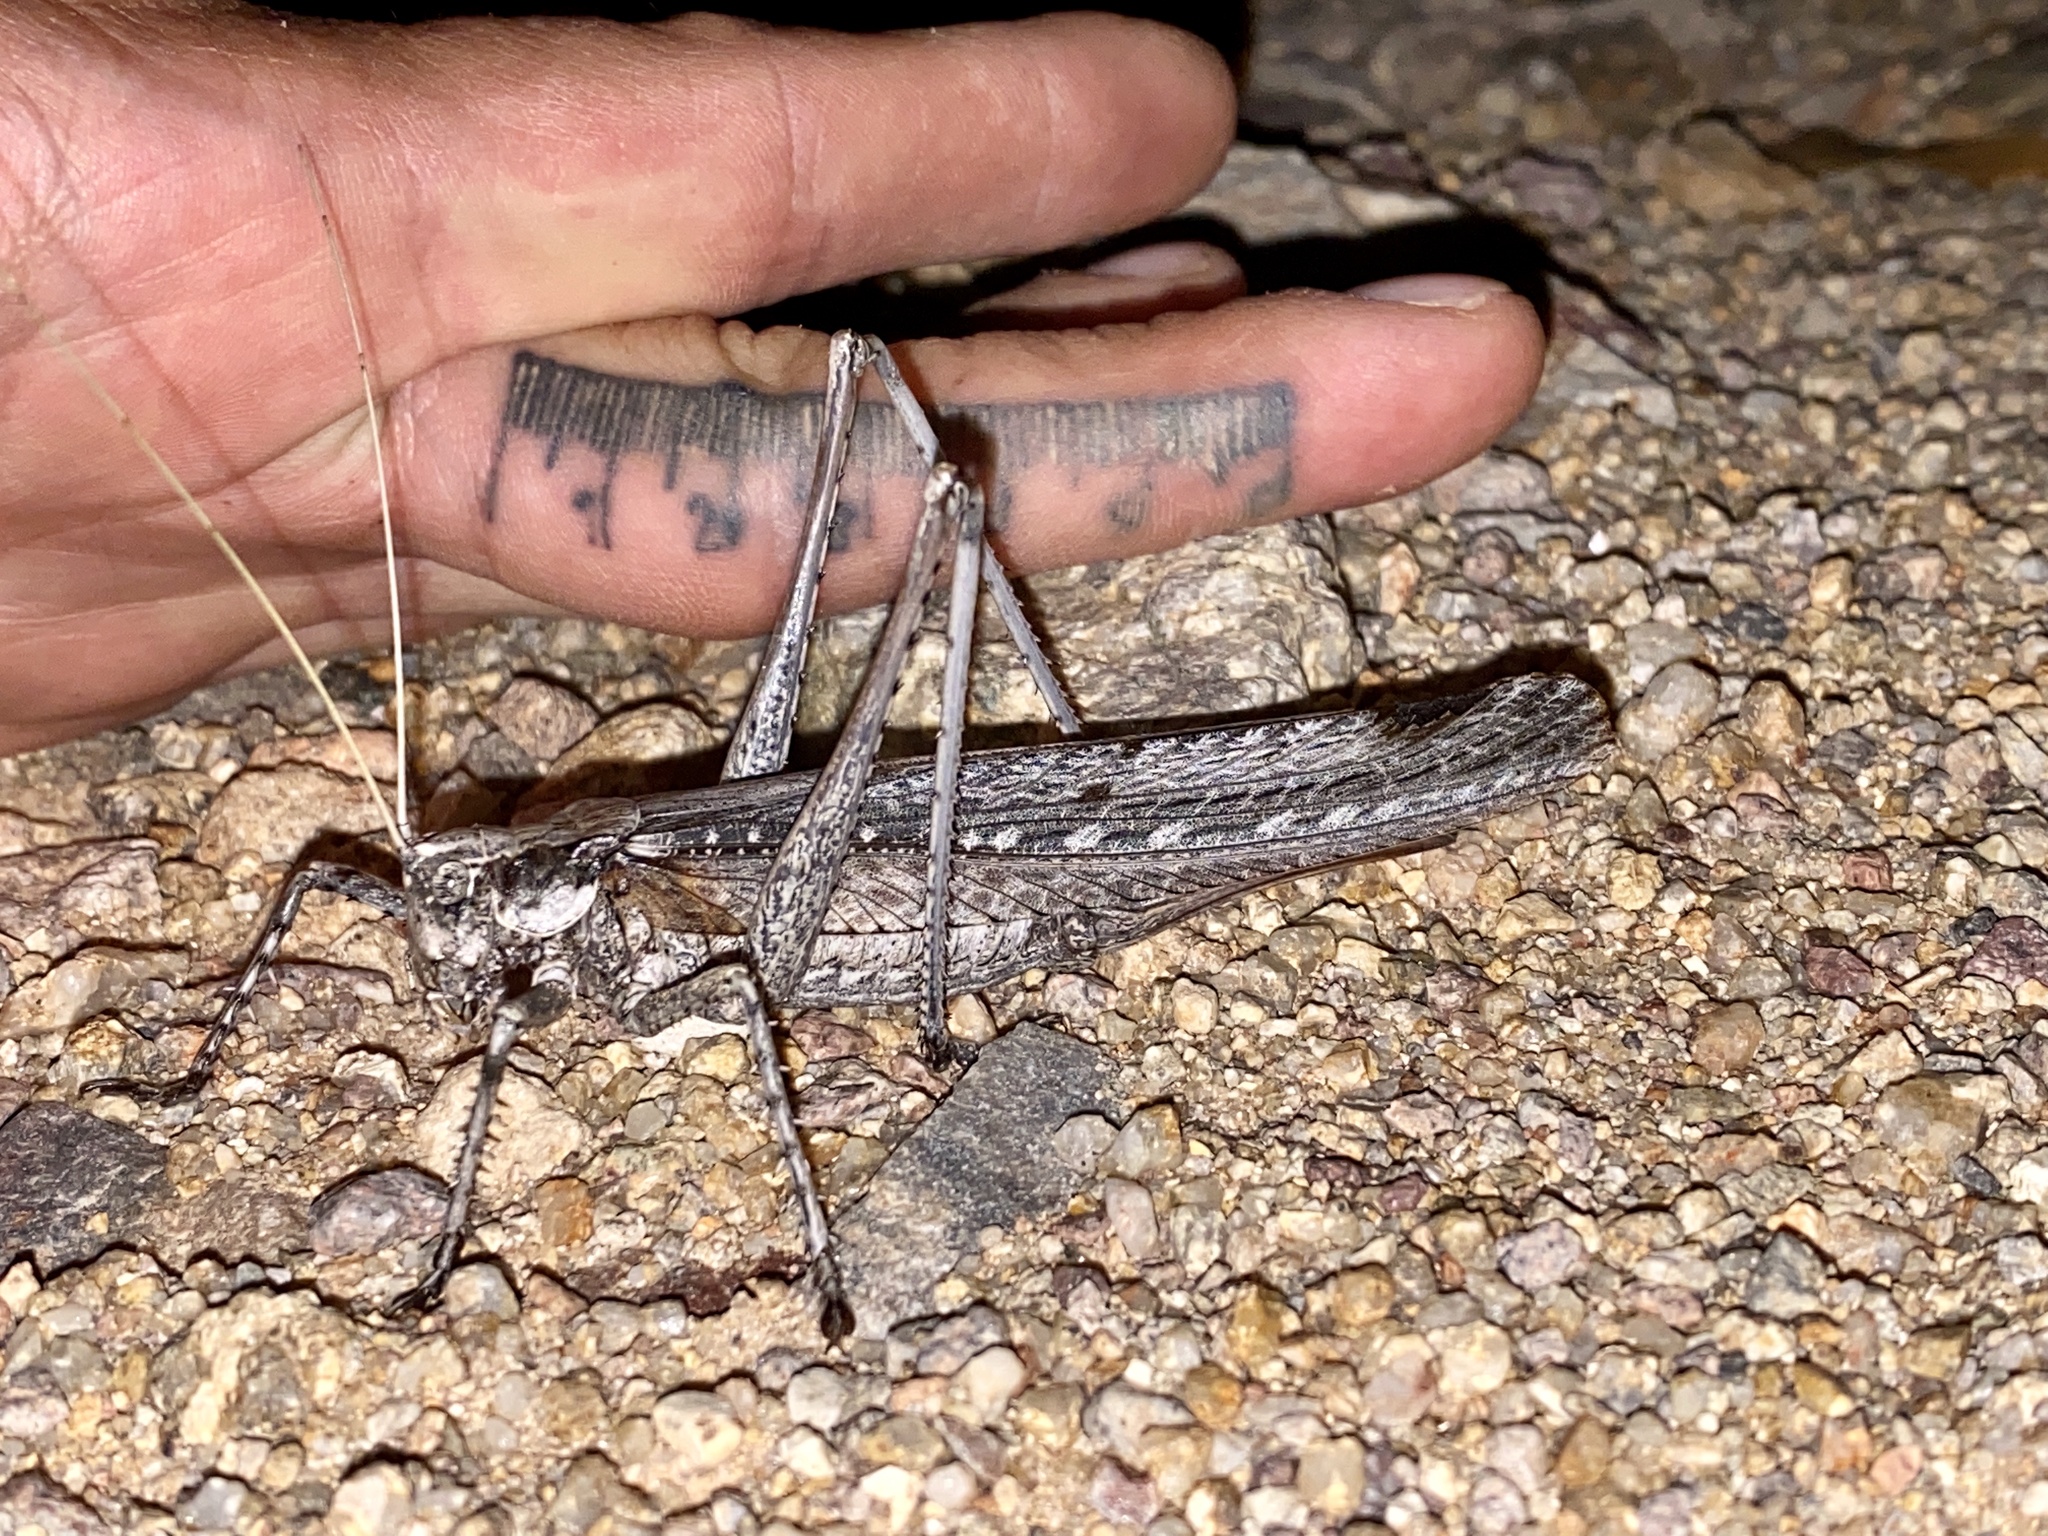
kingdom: Animalia
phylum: Arthropoda
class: Insecta
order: Orthoptera
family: Tettigoniidae
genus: Capnobotes
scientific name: Capnobotes fuliginosus
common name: Sooty longwing
